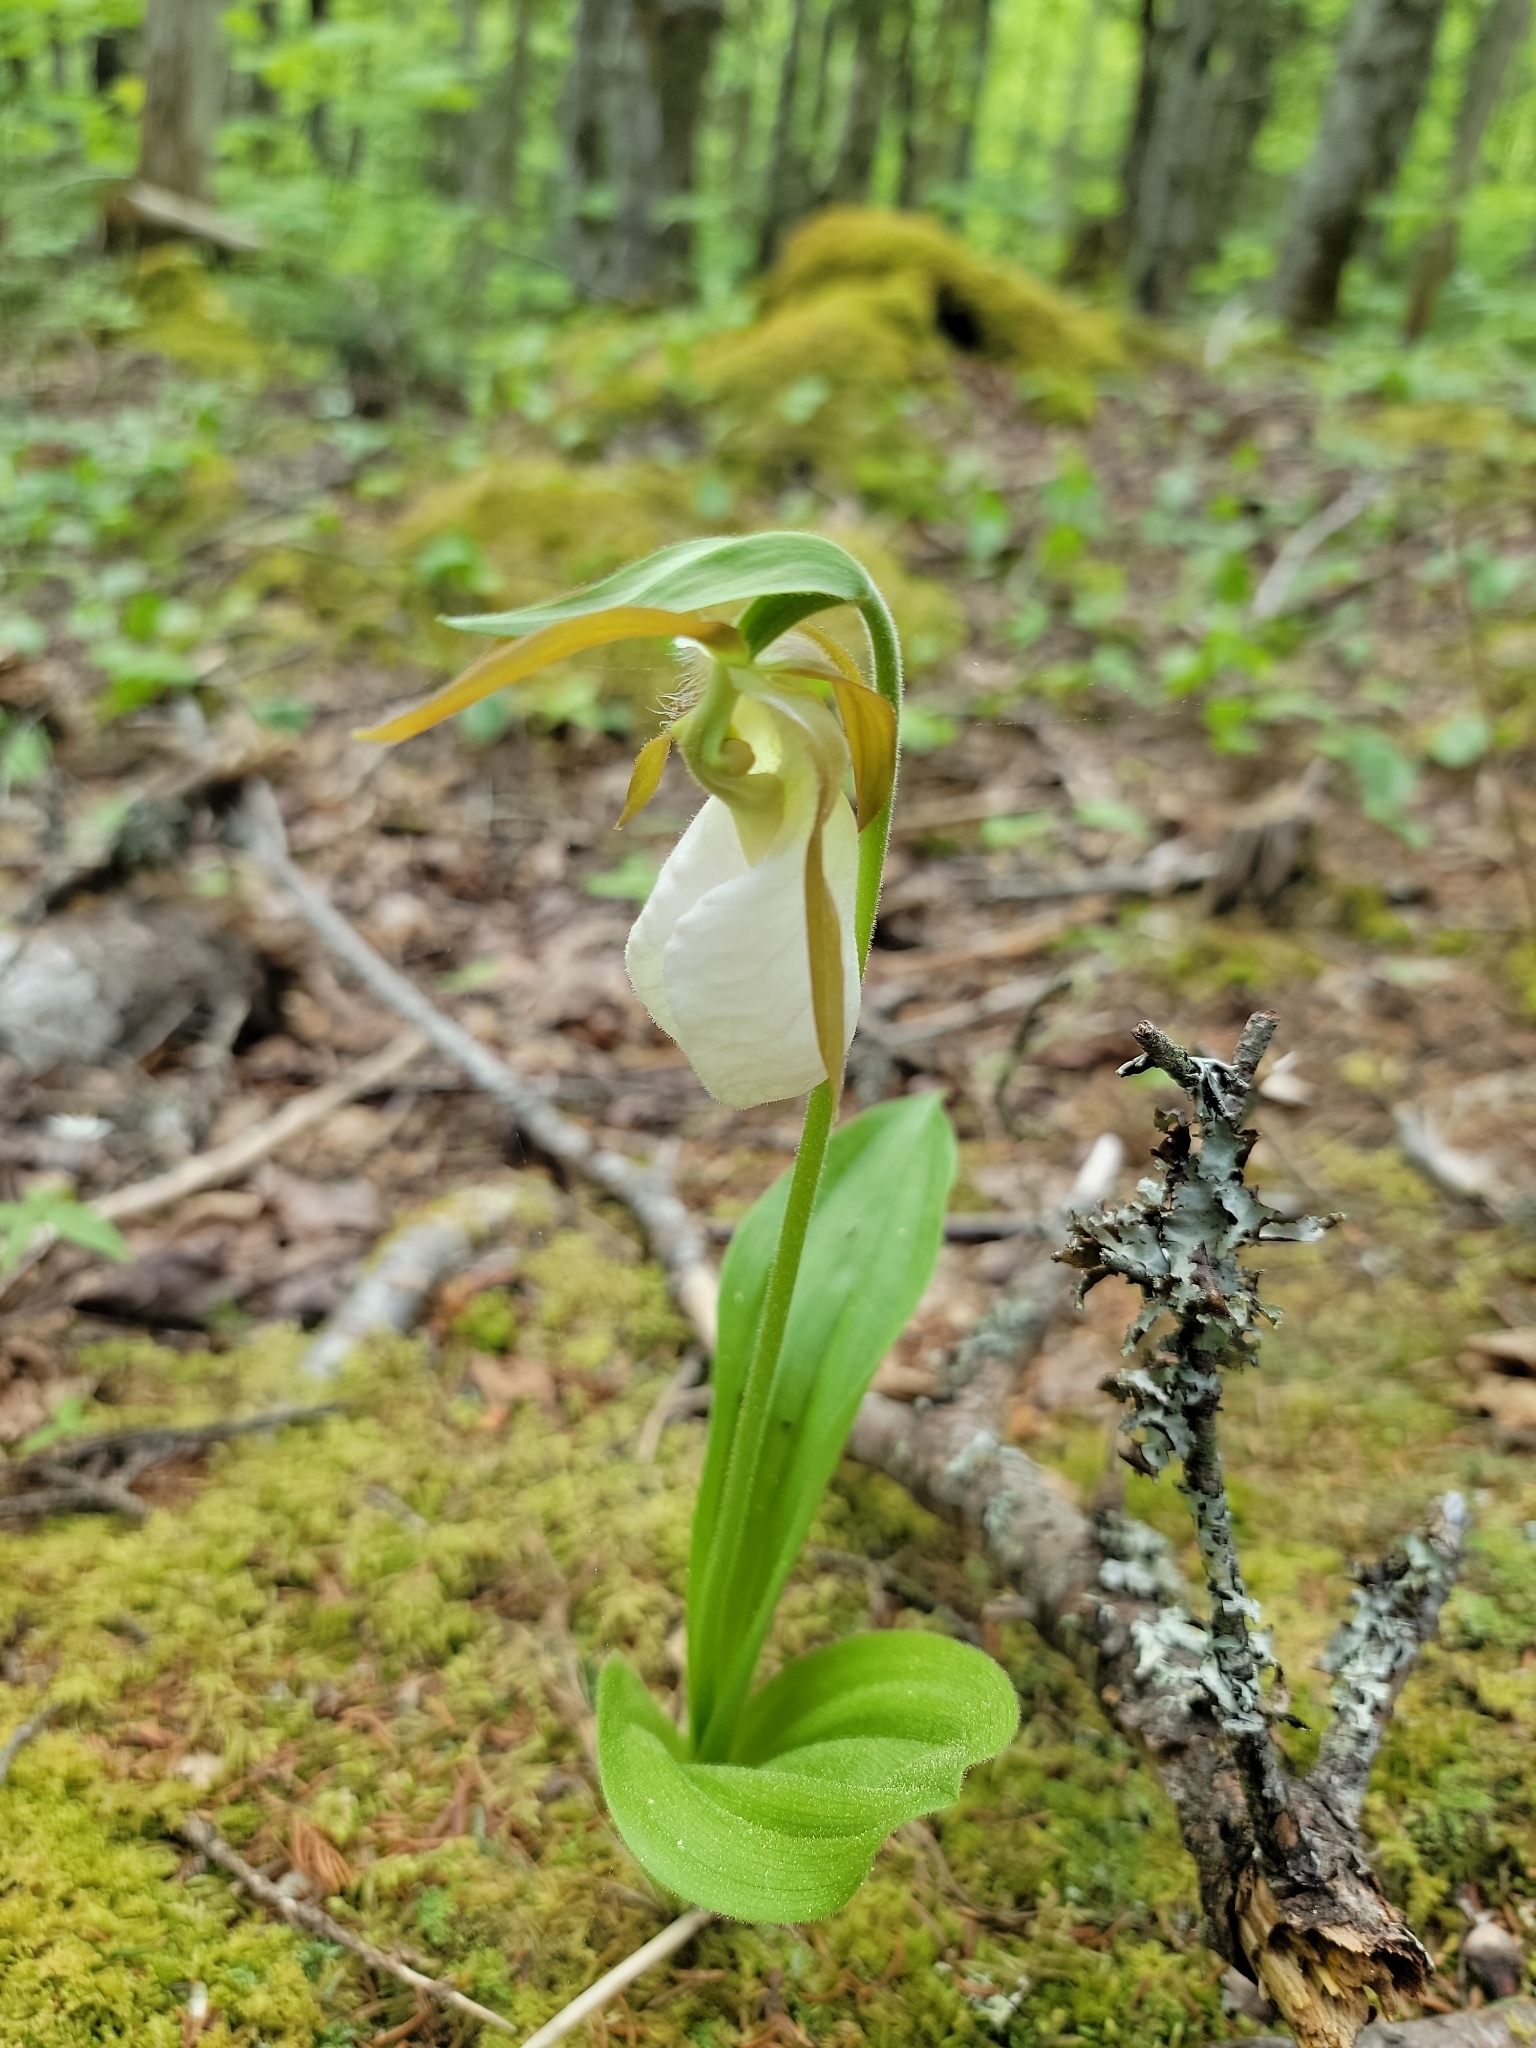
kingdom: Plantae
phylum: Tracheophyta
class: Liliopsida
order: Asparagales
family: Orchidaceae
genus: Cypripedium
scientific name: Cypripedium acaule
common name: Pink lady's-slipper
